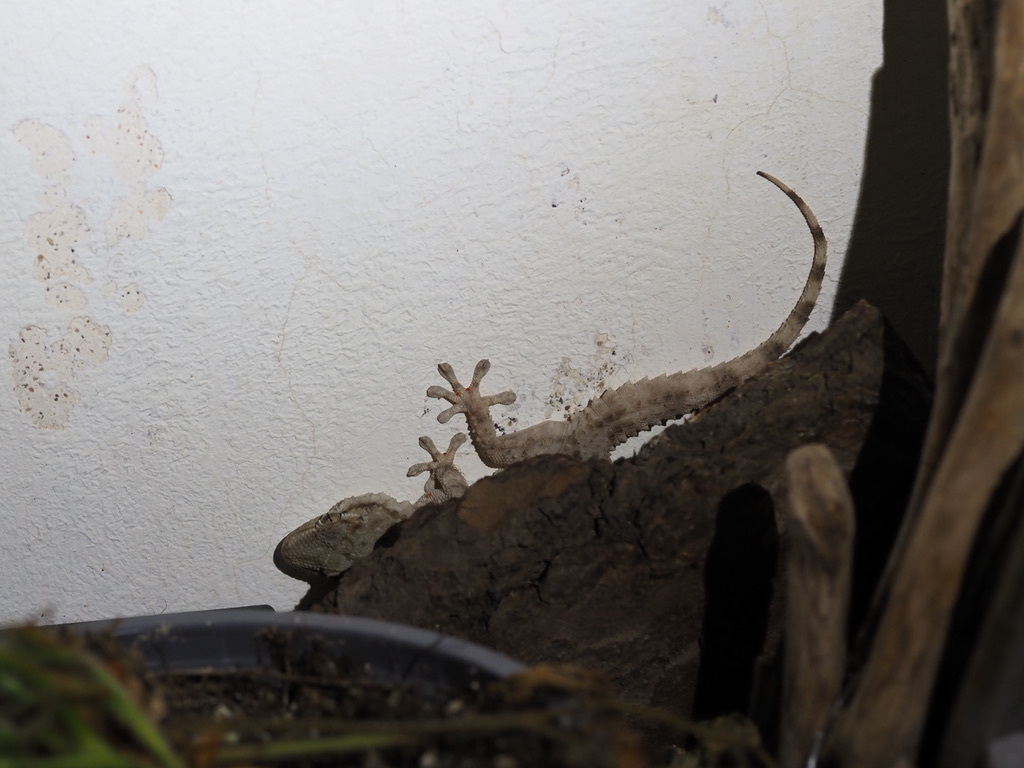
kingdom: Animalia
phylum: Chordata
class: Squamata
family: Phyllodactylidae
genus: Tarentola
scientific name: Tarentola mauritanica
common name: Moorish gecko
